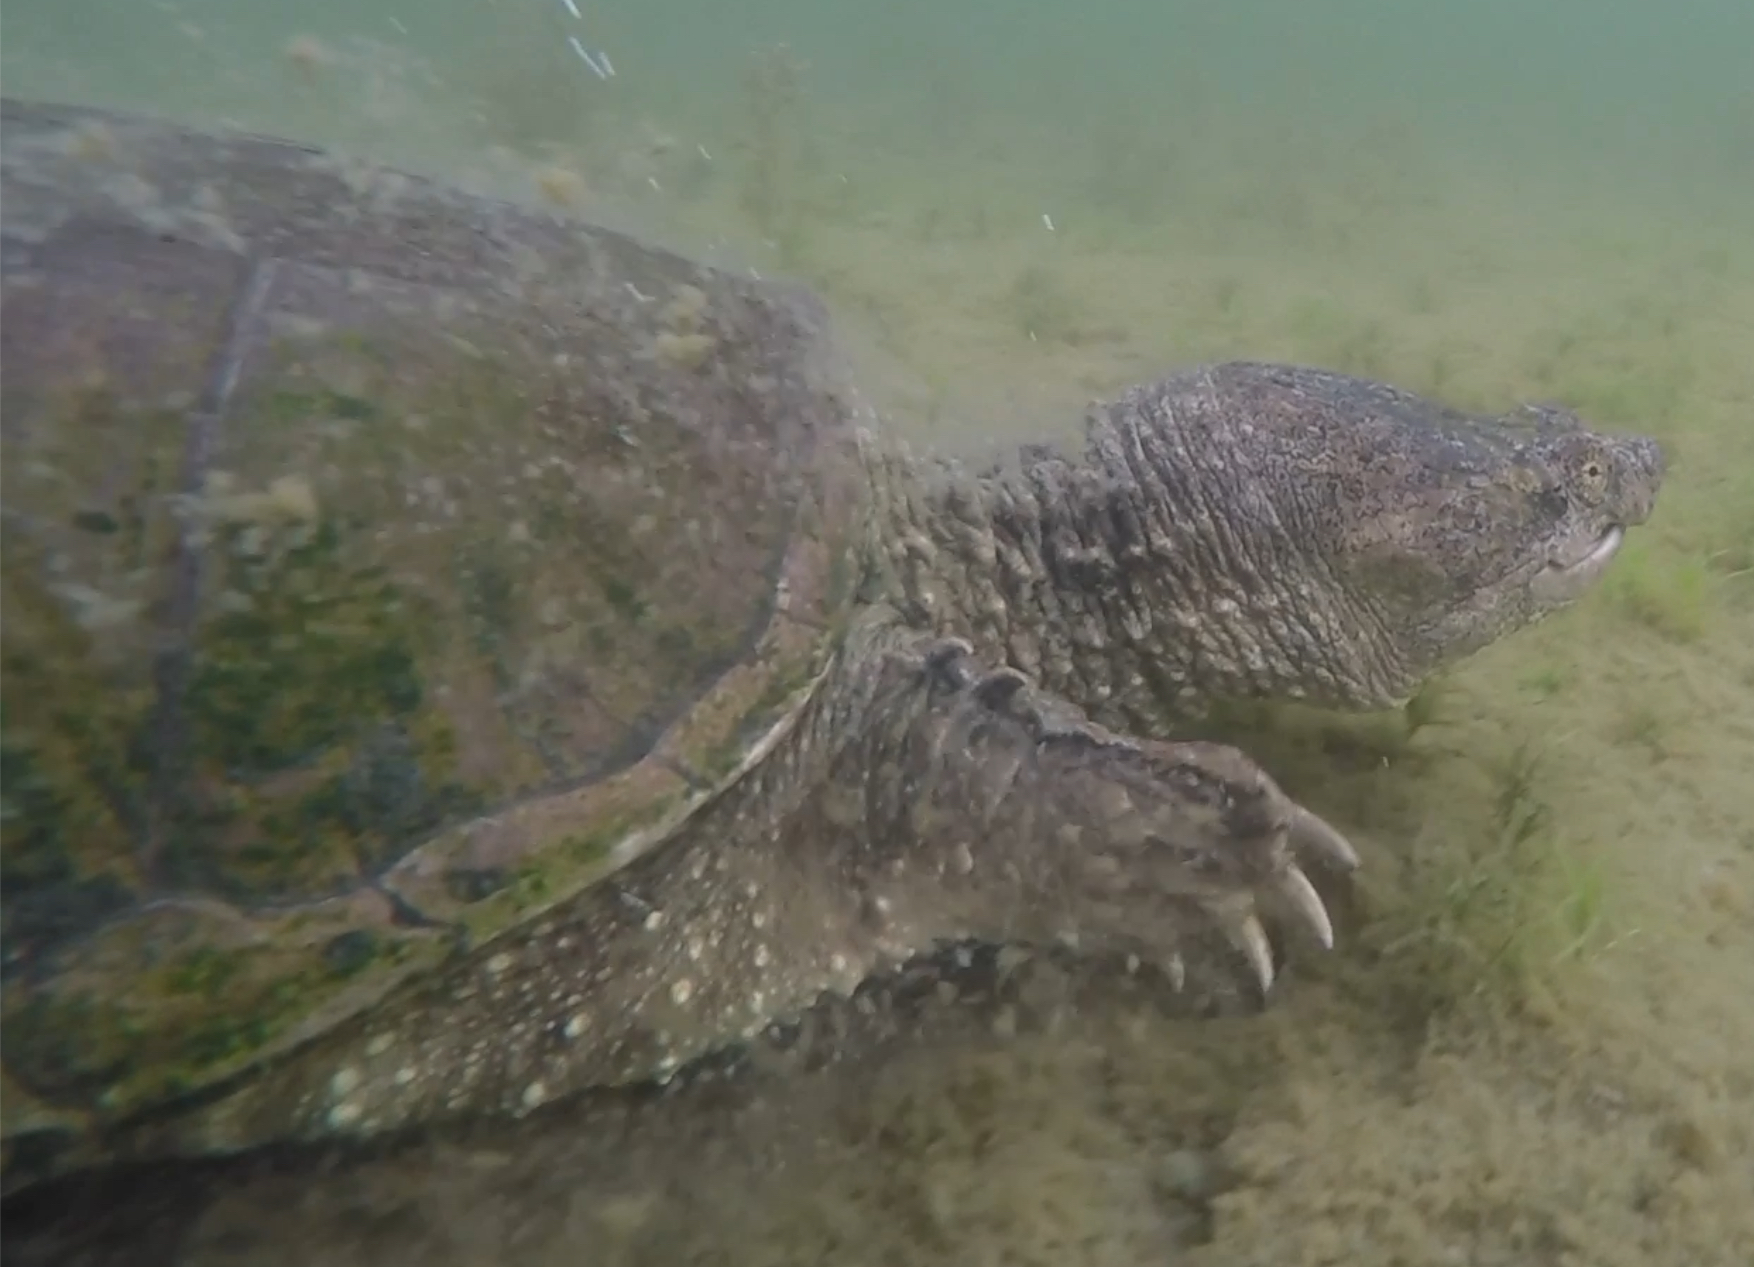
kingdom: Animalia
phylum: Chordata
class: Testudines
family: Chelydridae
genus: Chelydra
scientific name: Chelydra serpentina
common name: Common snapping turtle
